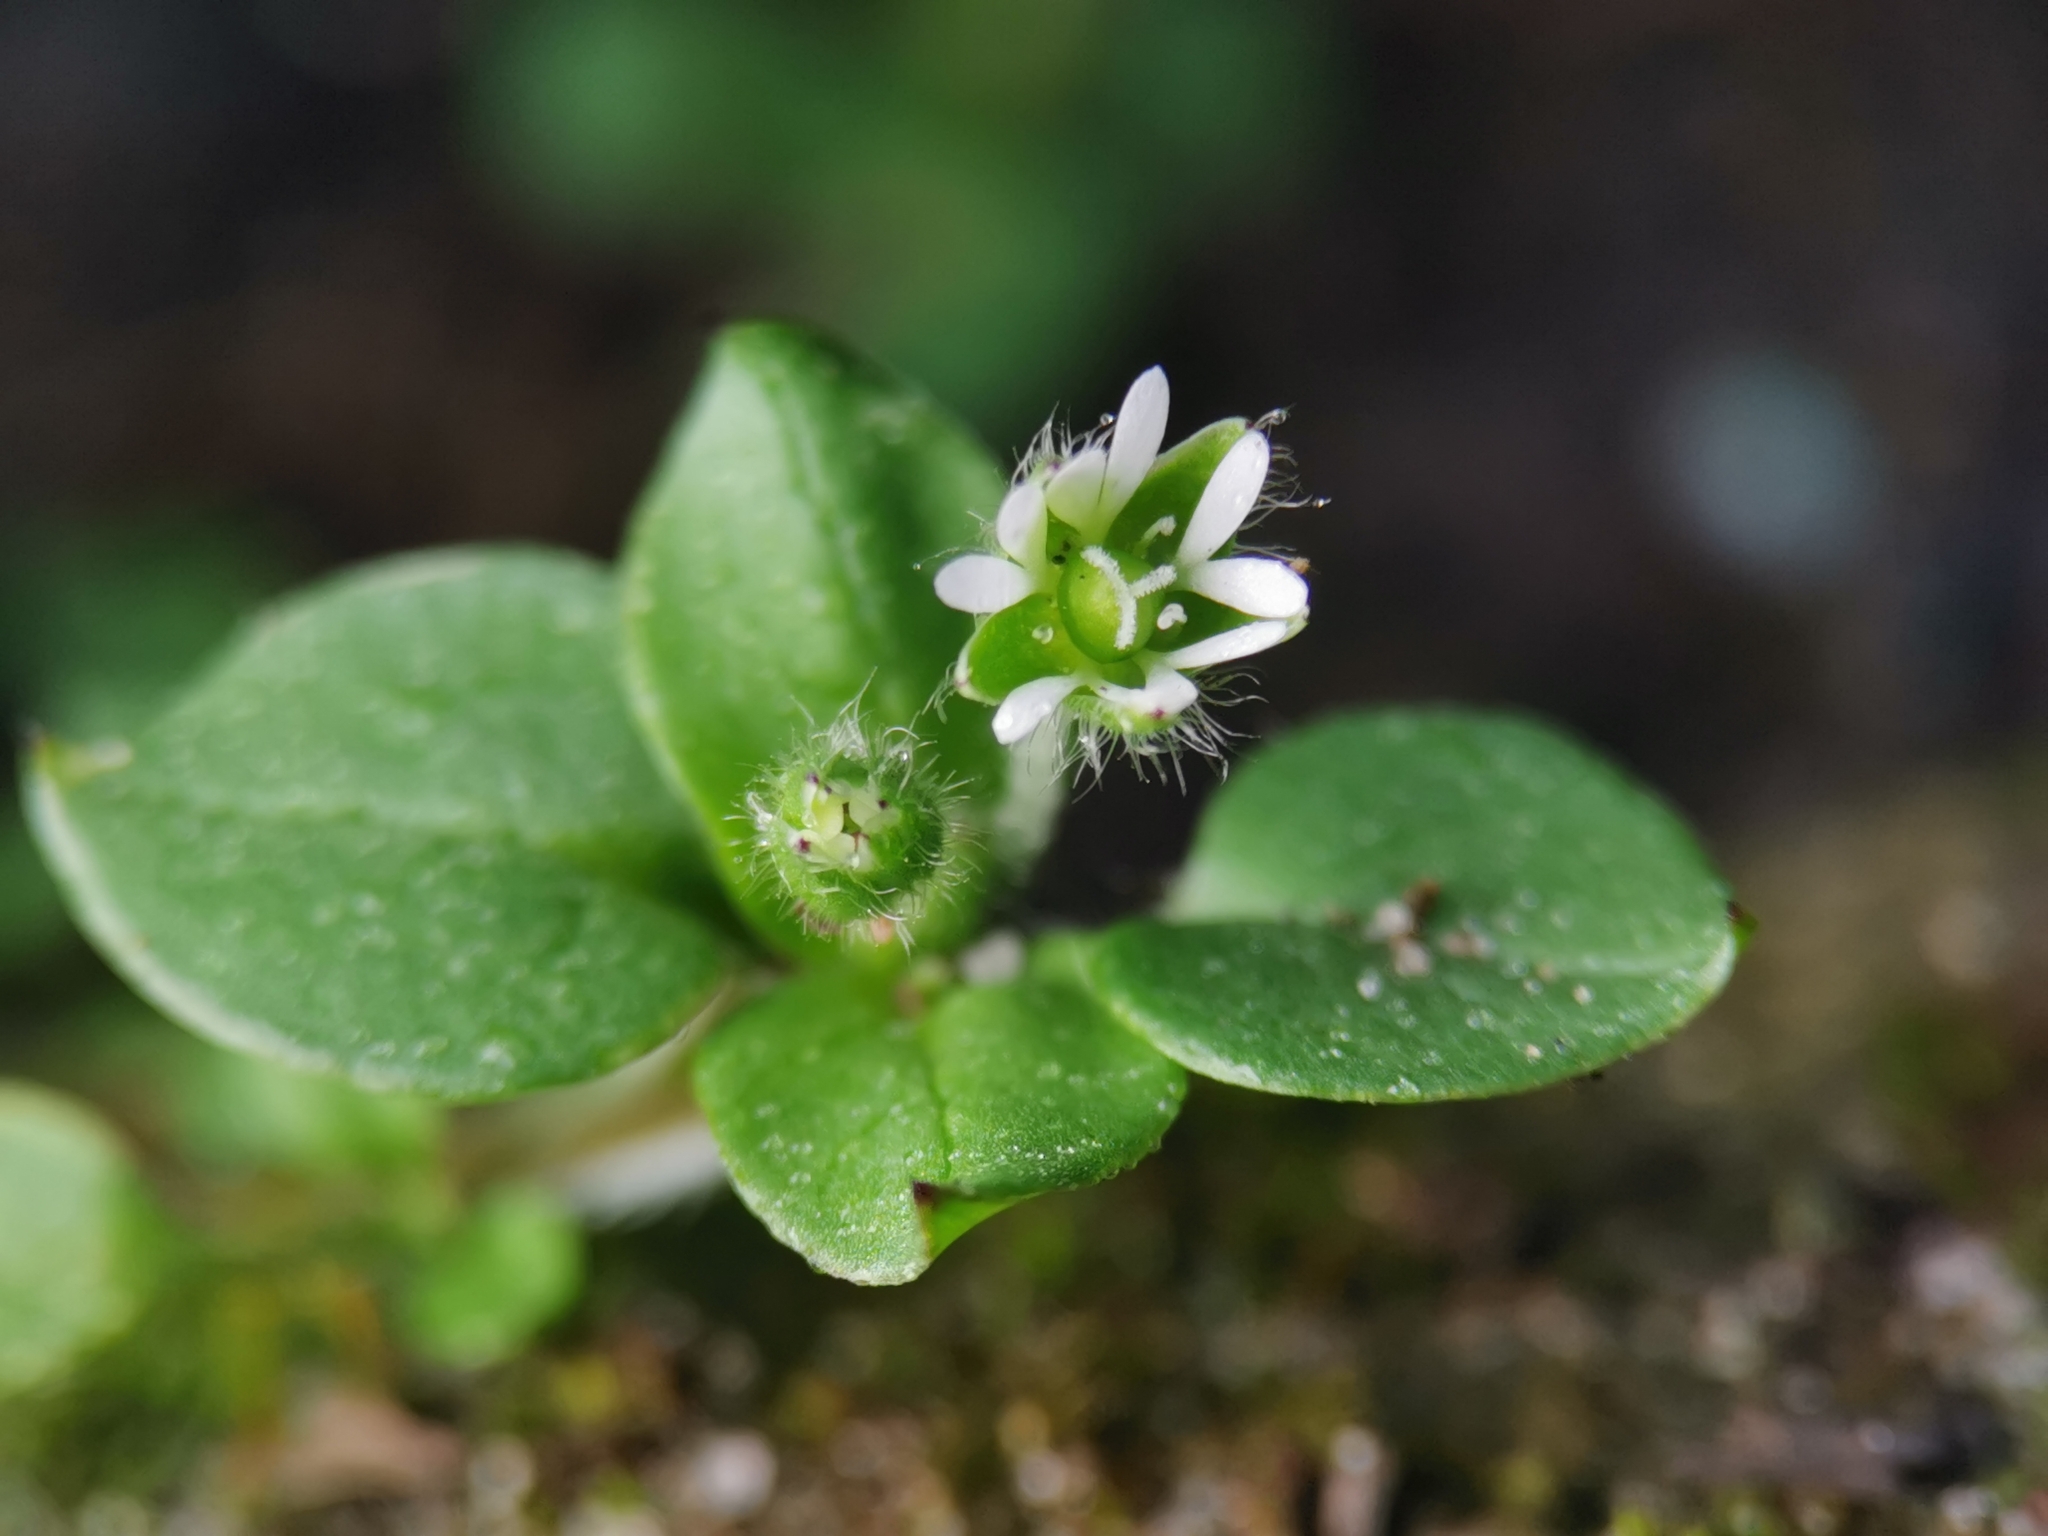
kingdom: Plantae
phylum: Tracheophyta
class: Magnoliopsida
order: Caryophyllales
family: Caryophyllaceae
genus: Stellaria
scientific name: Stellaria media
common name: Common chickweed
